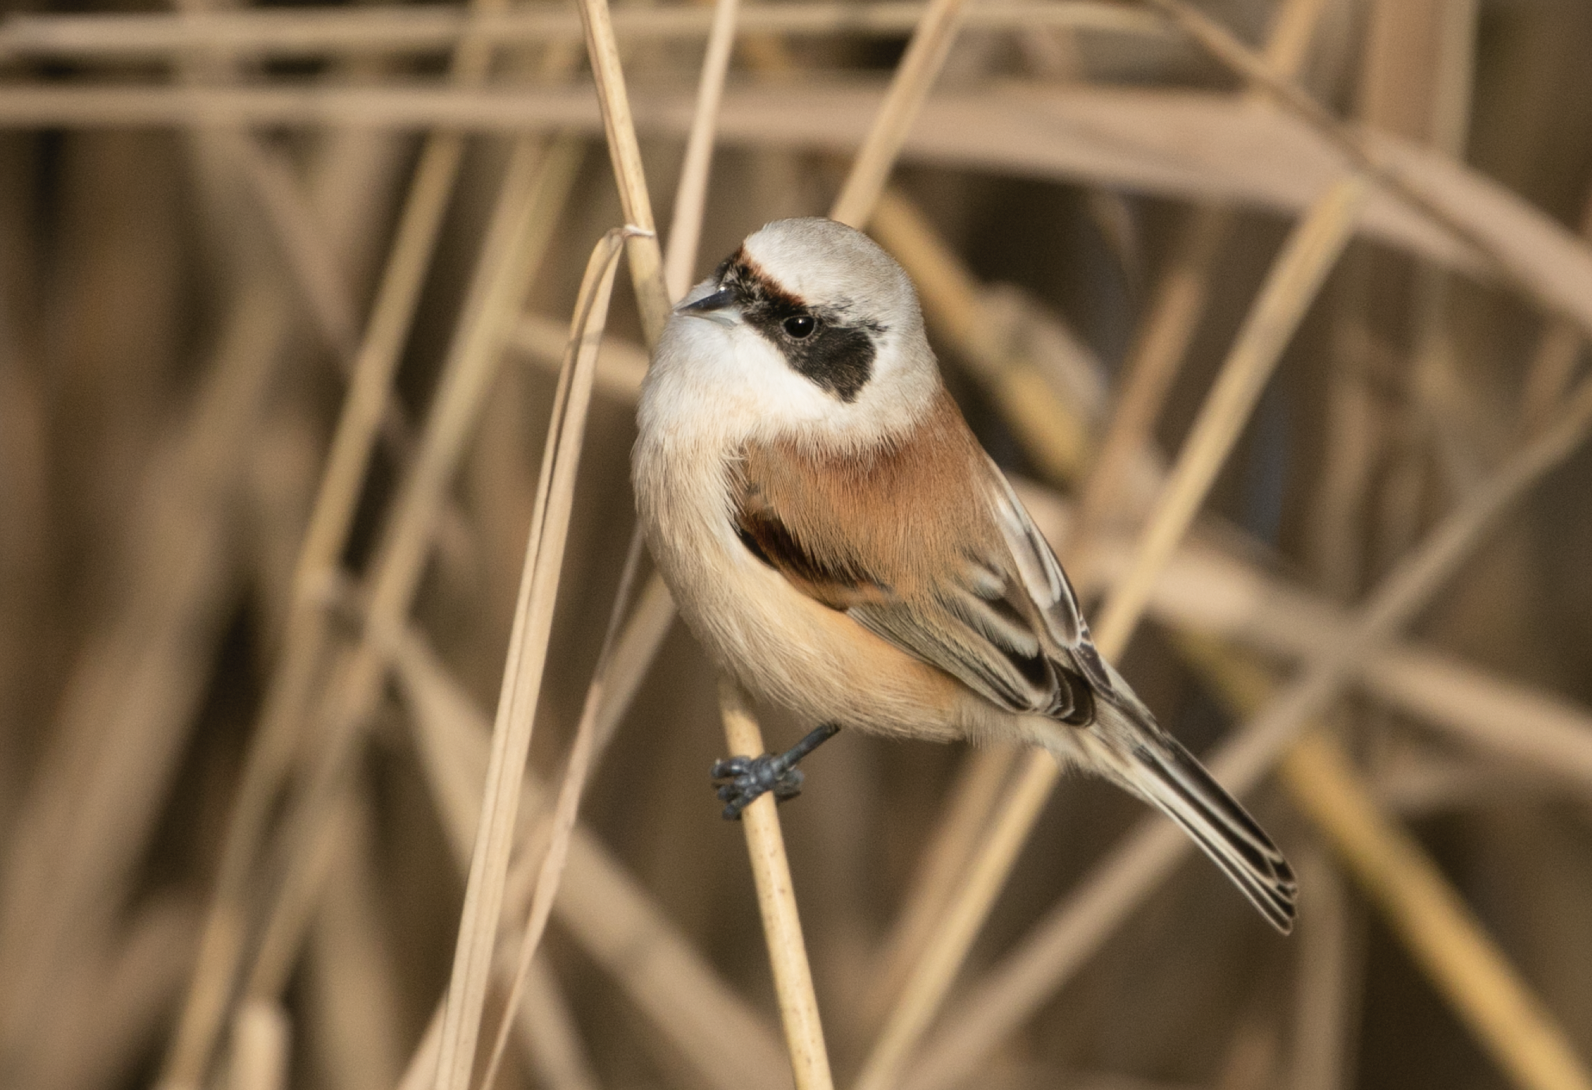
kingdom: Animalia
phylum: Chordata
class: Aves
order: Passeriformes
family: Remizidae
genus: Remiz
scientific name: Remiz pendulinus
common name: Eurasian penduline tit
